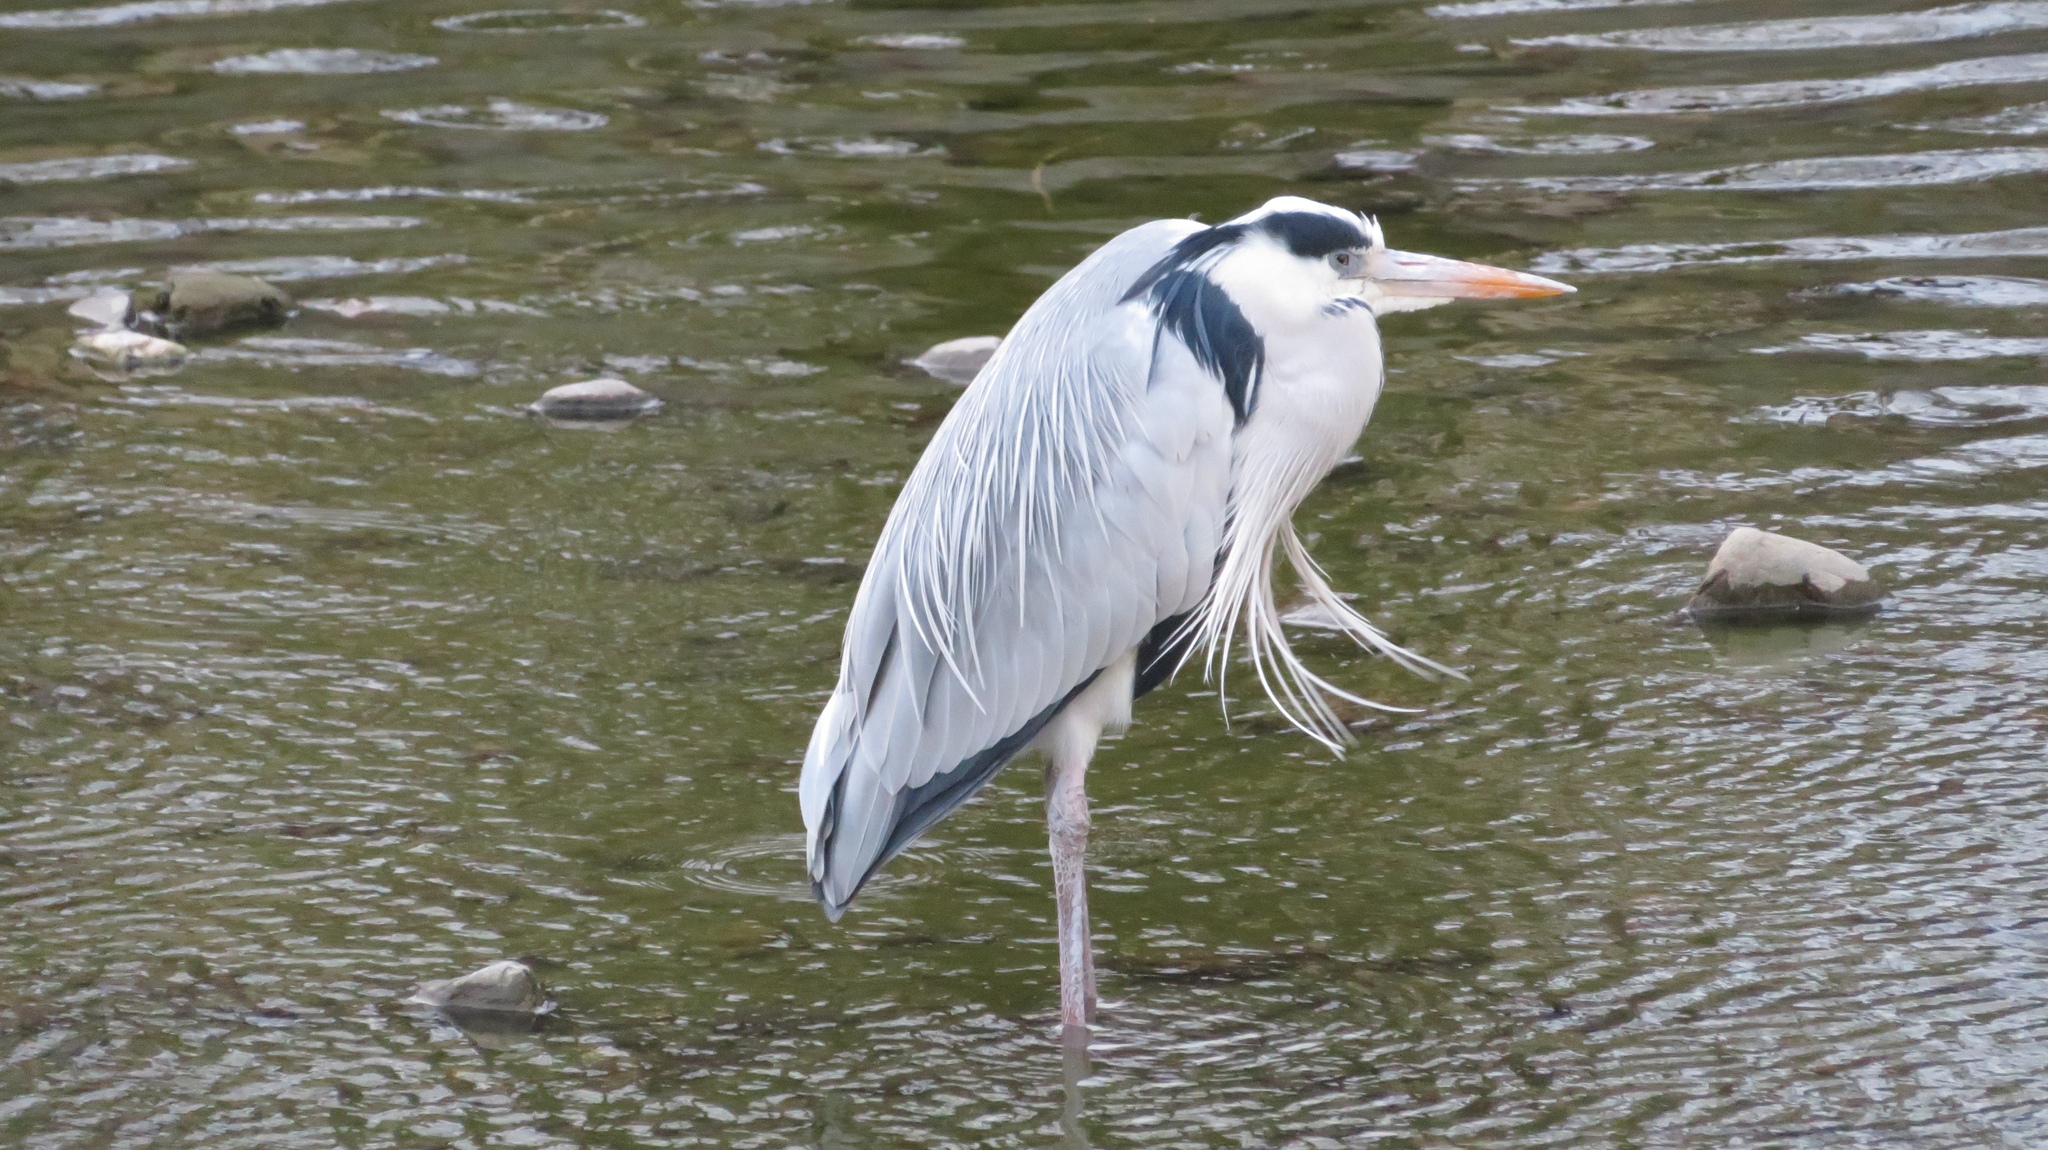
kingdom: Animalia
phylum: Chordata
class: Aves
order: Pelecaniformes
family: Ardeidae
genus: Ardea
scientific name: Ardea cinerea
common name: Grey heron
